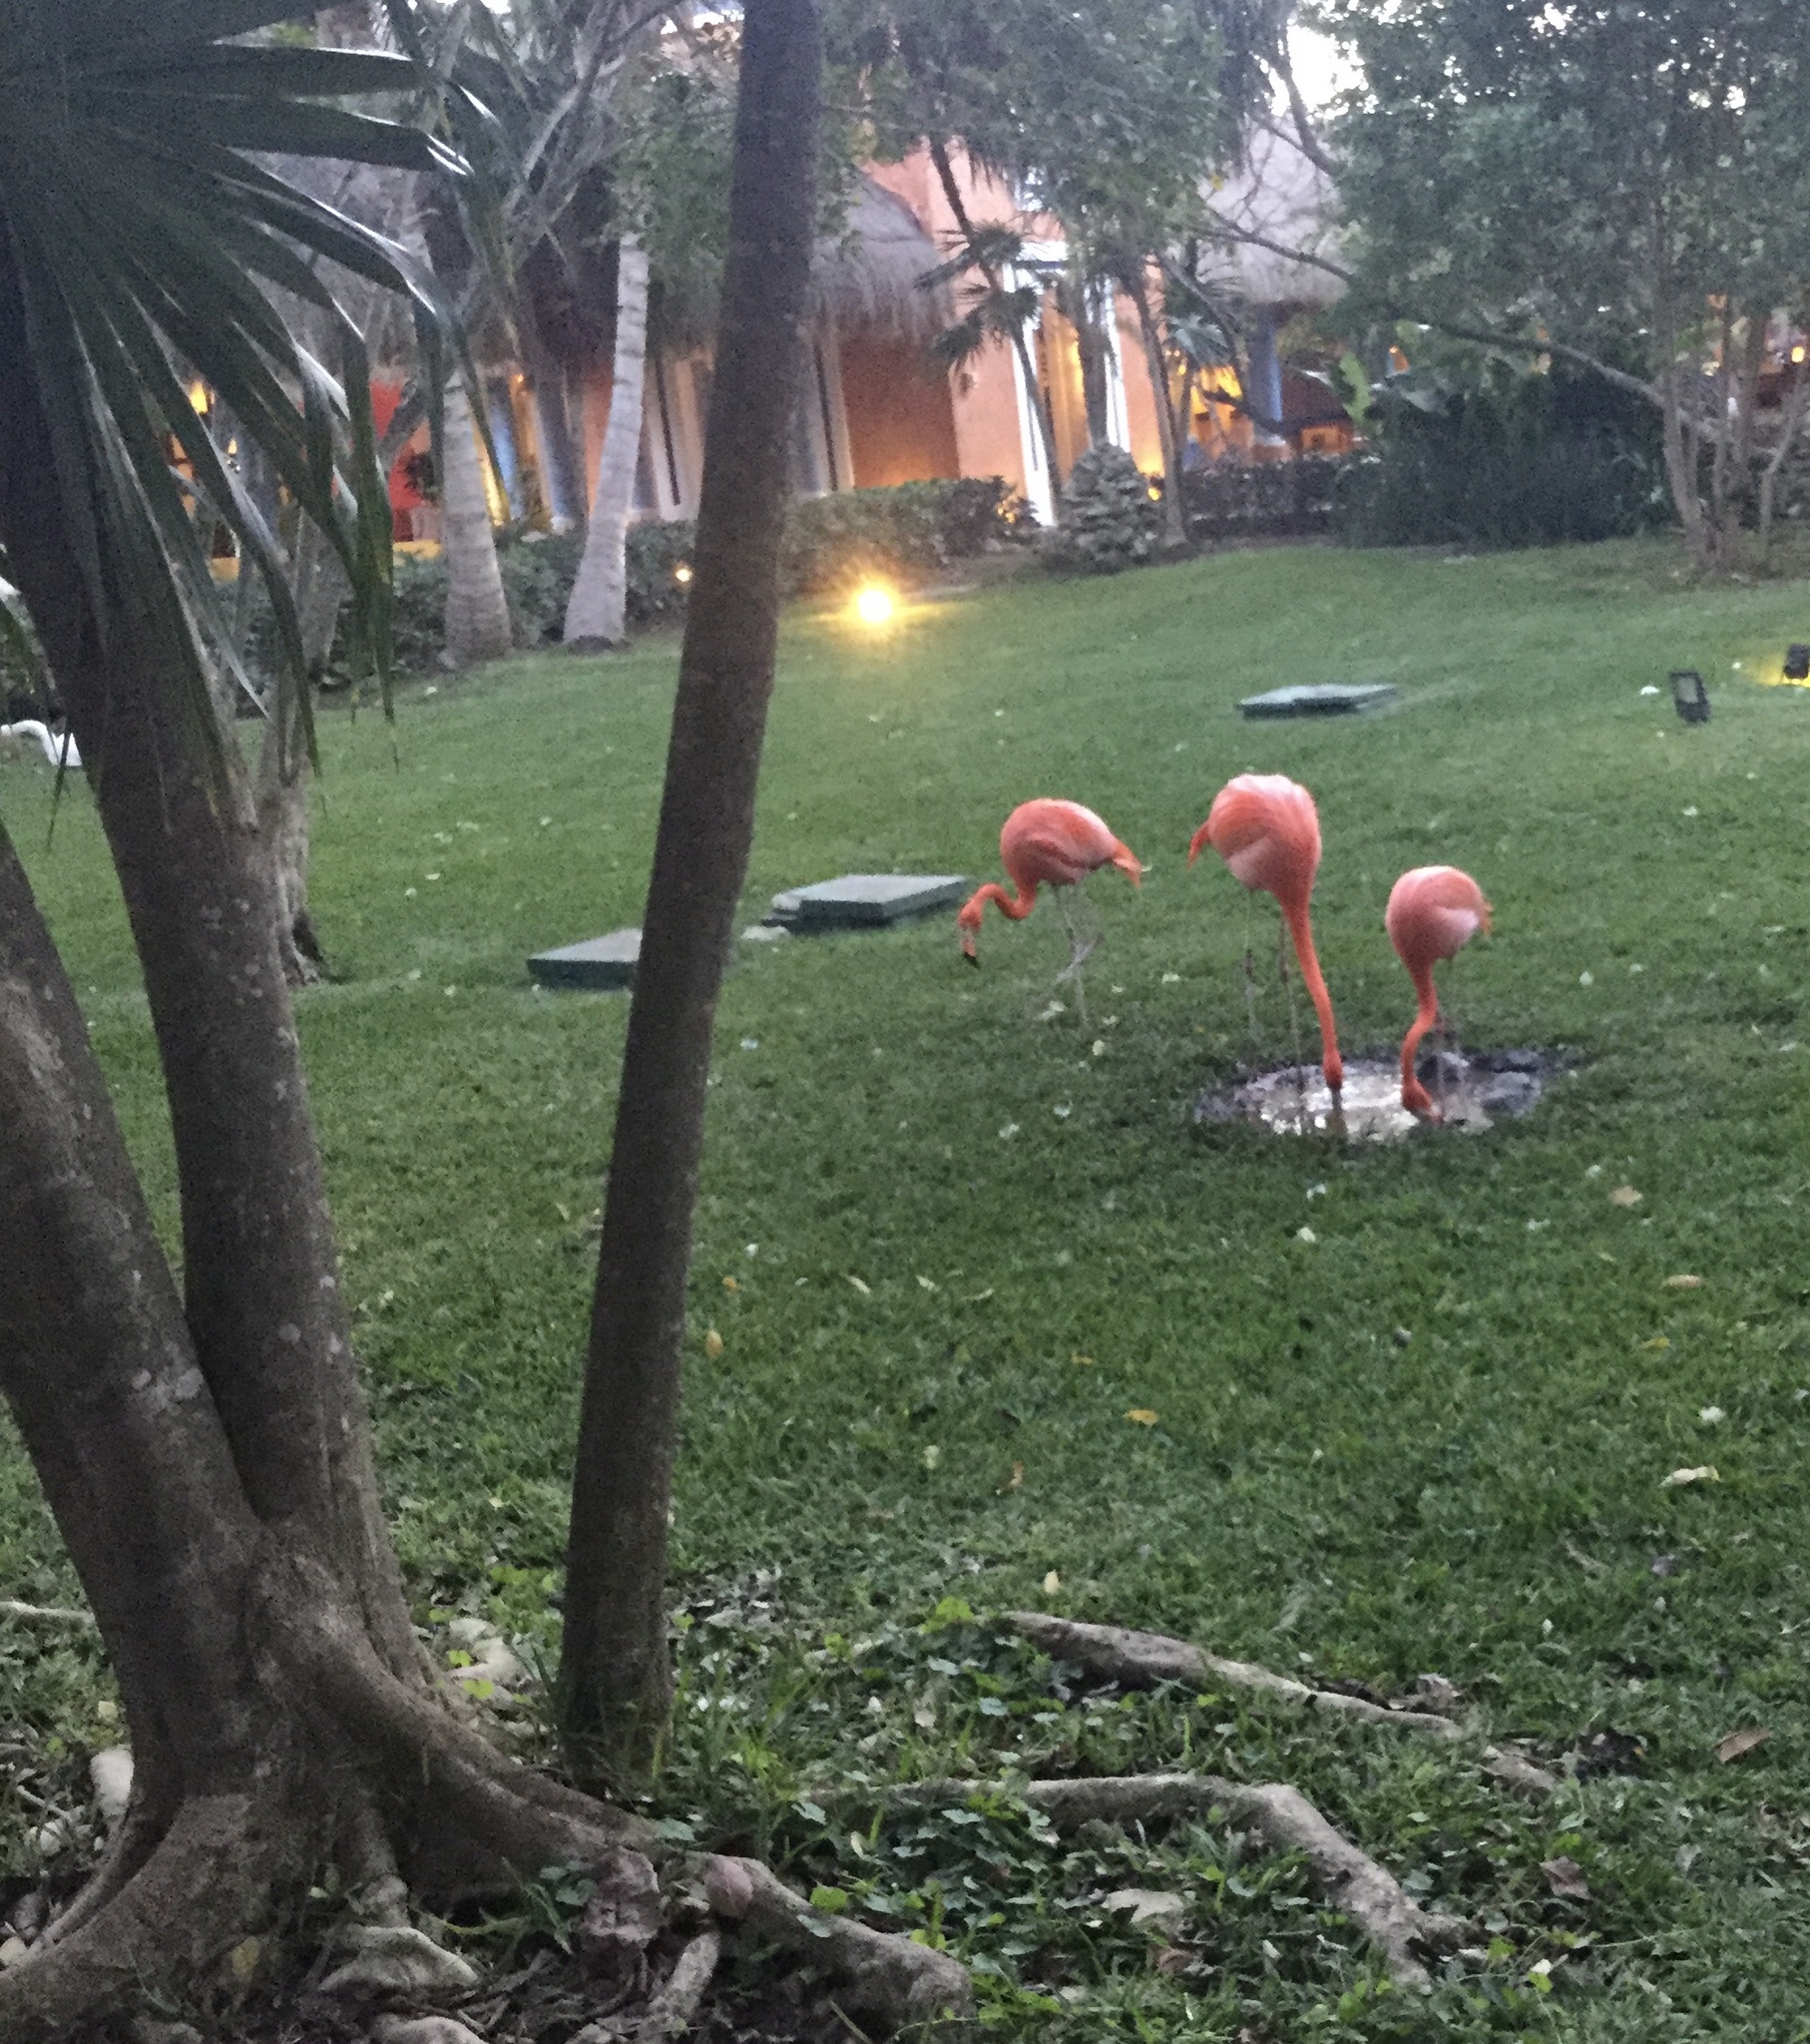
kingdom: Animalia
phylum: Chordata
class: Aves
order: Phoenicopteriformes
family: Phoenicopteridae
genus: Phoenicopterus
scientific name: Phoenicopterus ruber
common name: American flamingo
